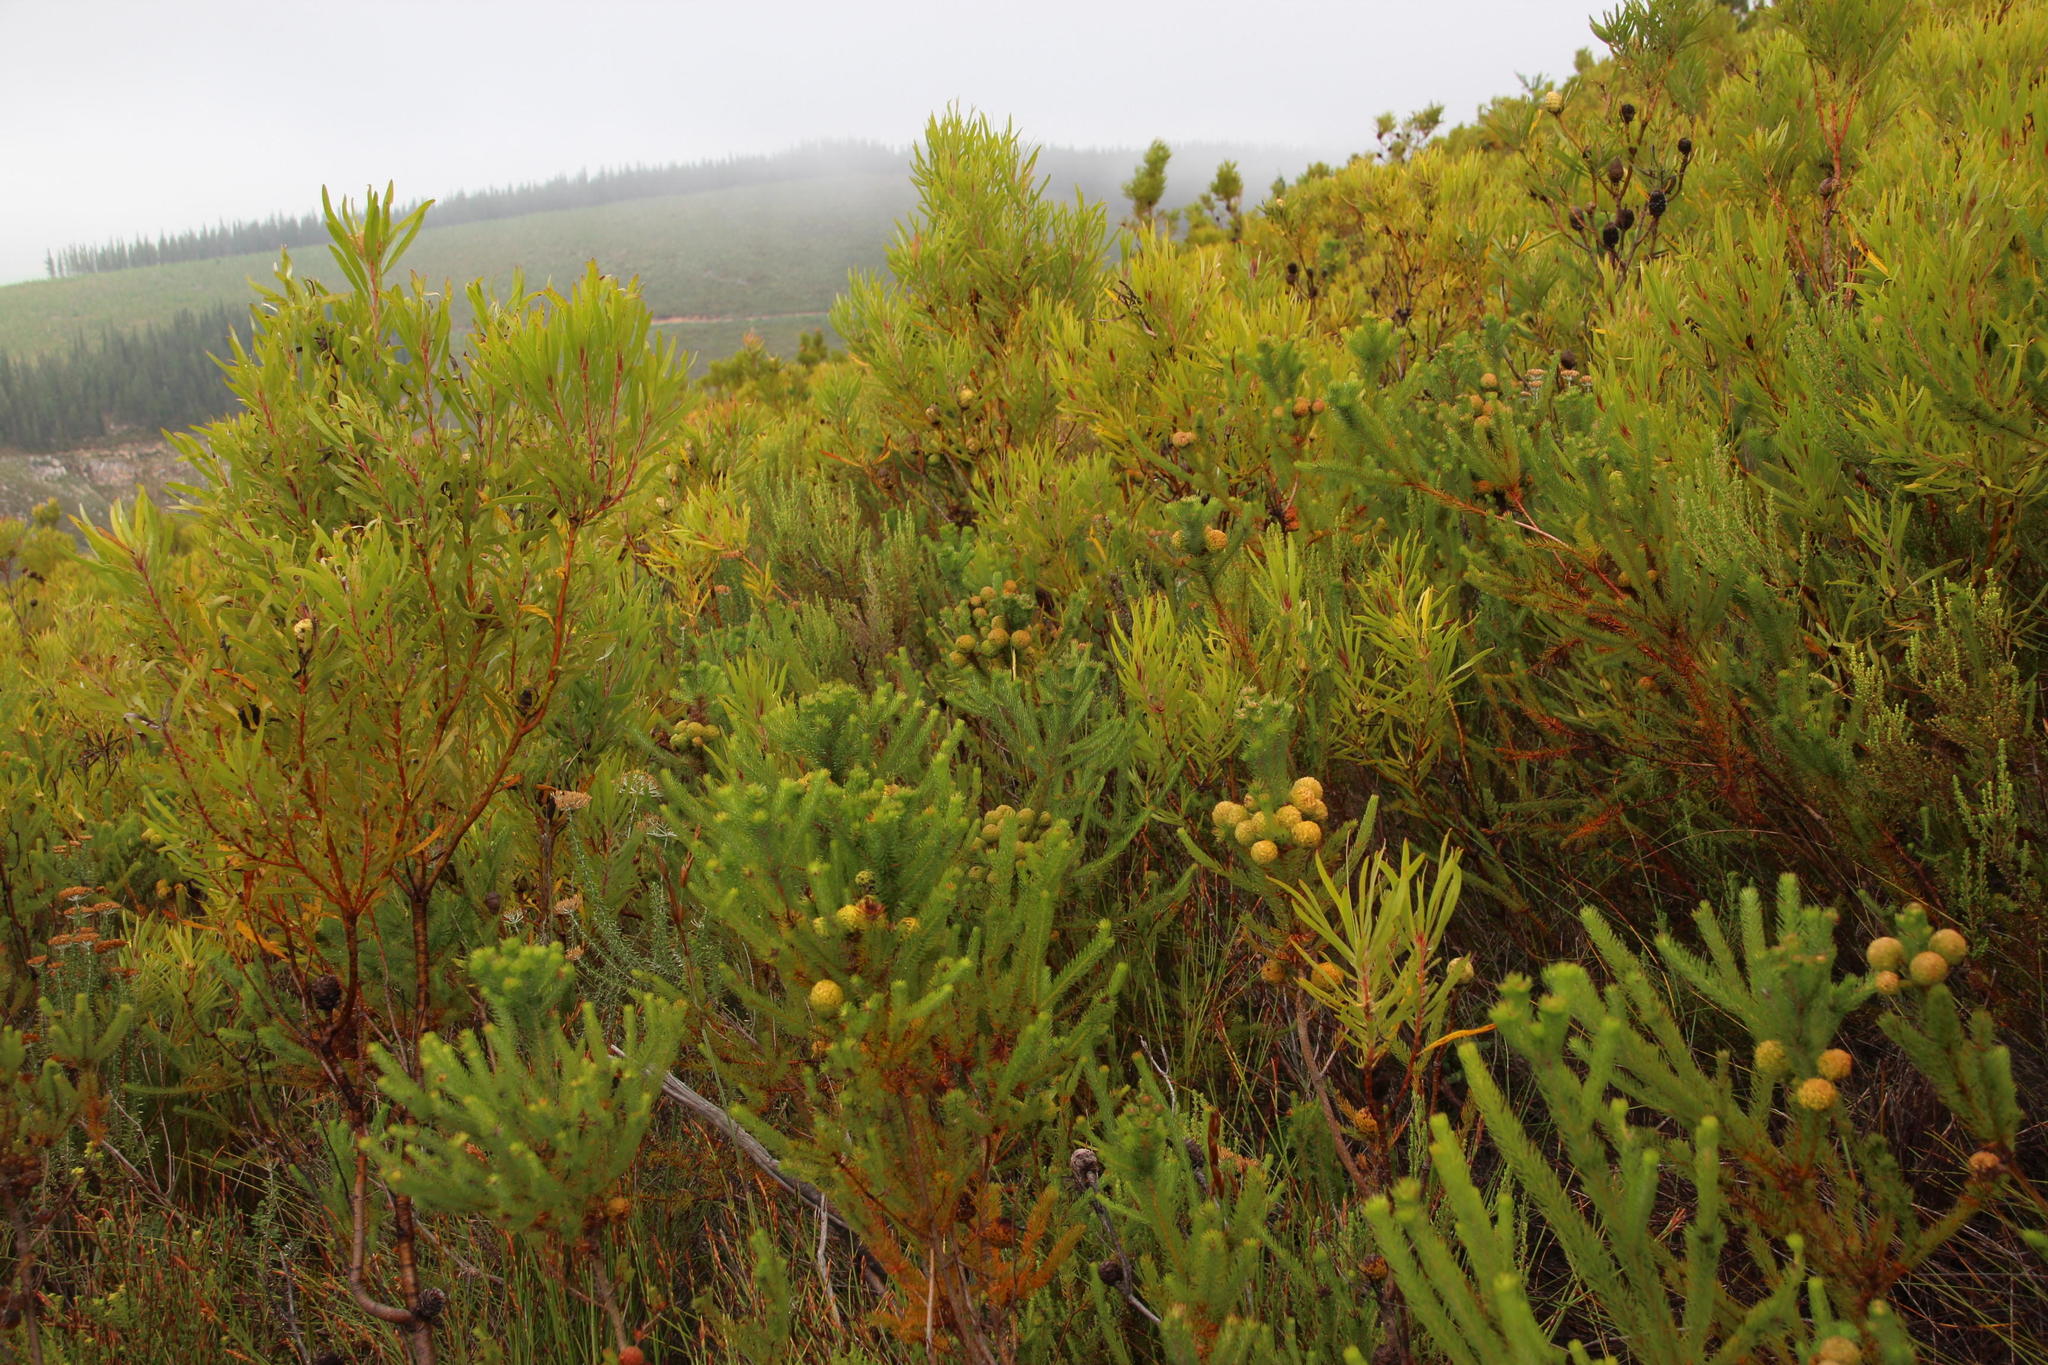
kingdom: Plantae
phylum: Tracheophyta
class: Magnoliopsida
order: Bruniales
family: Bruniaceae
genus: Berzelia
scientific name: Berzelia galpinii
